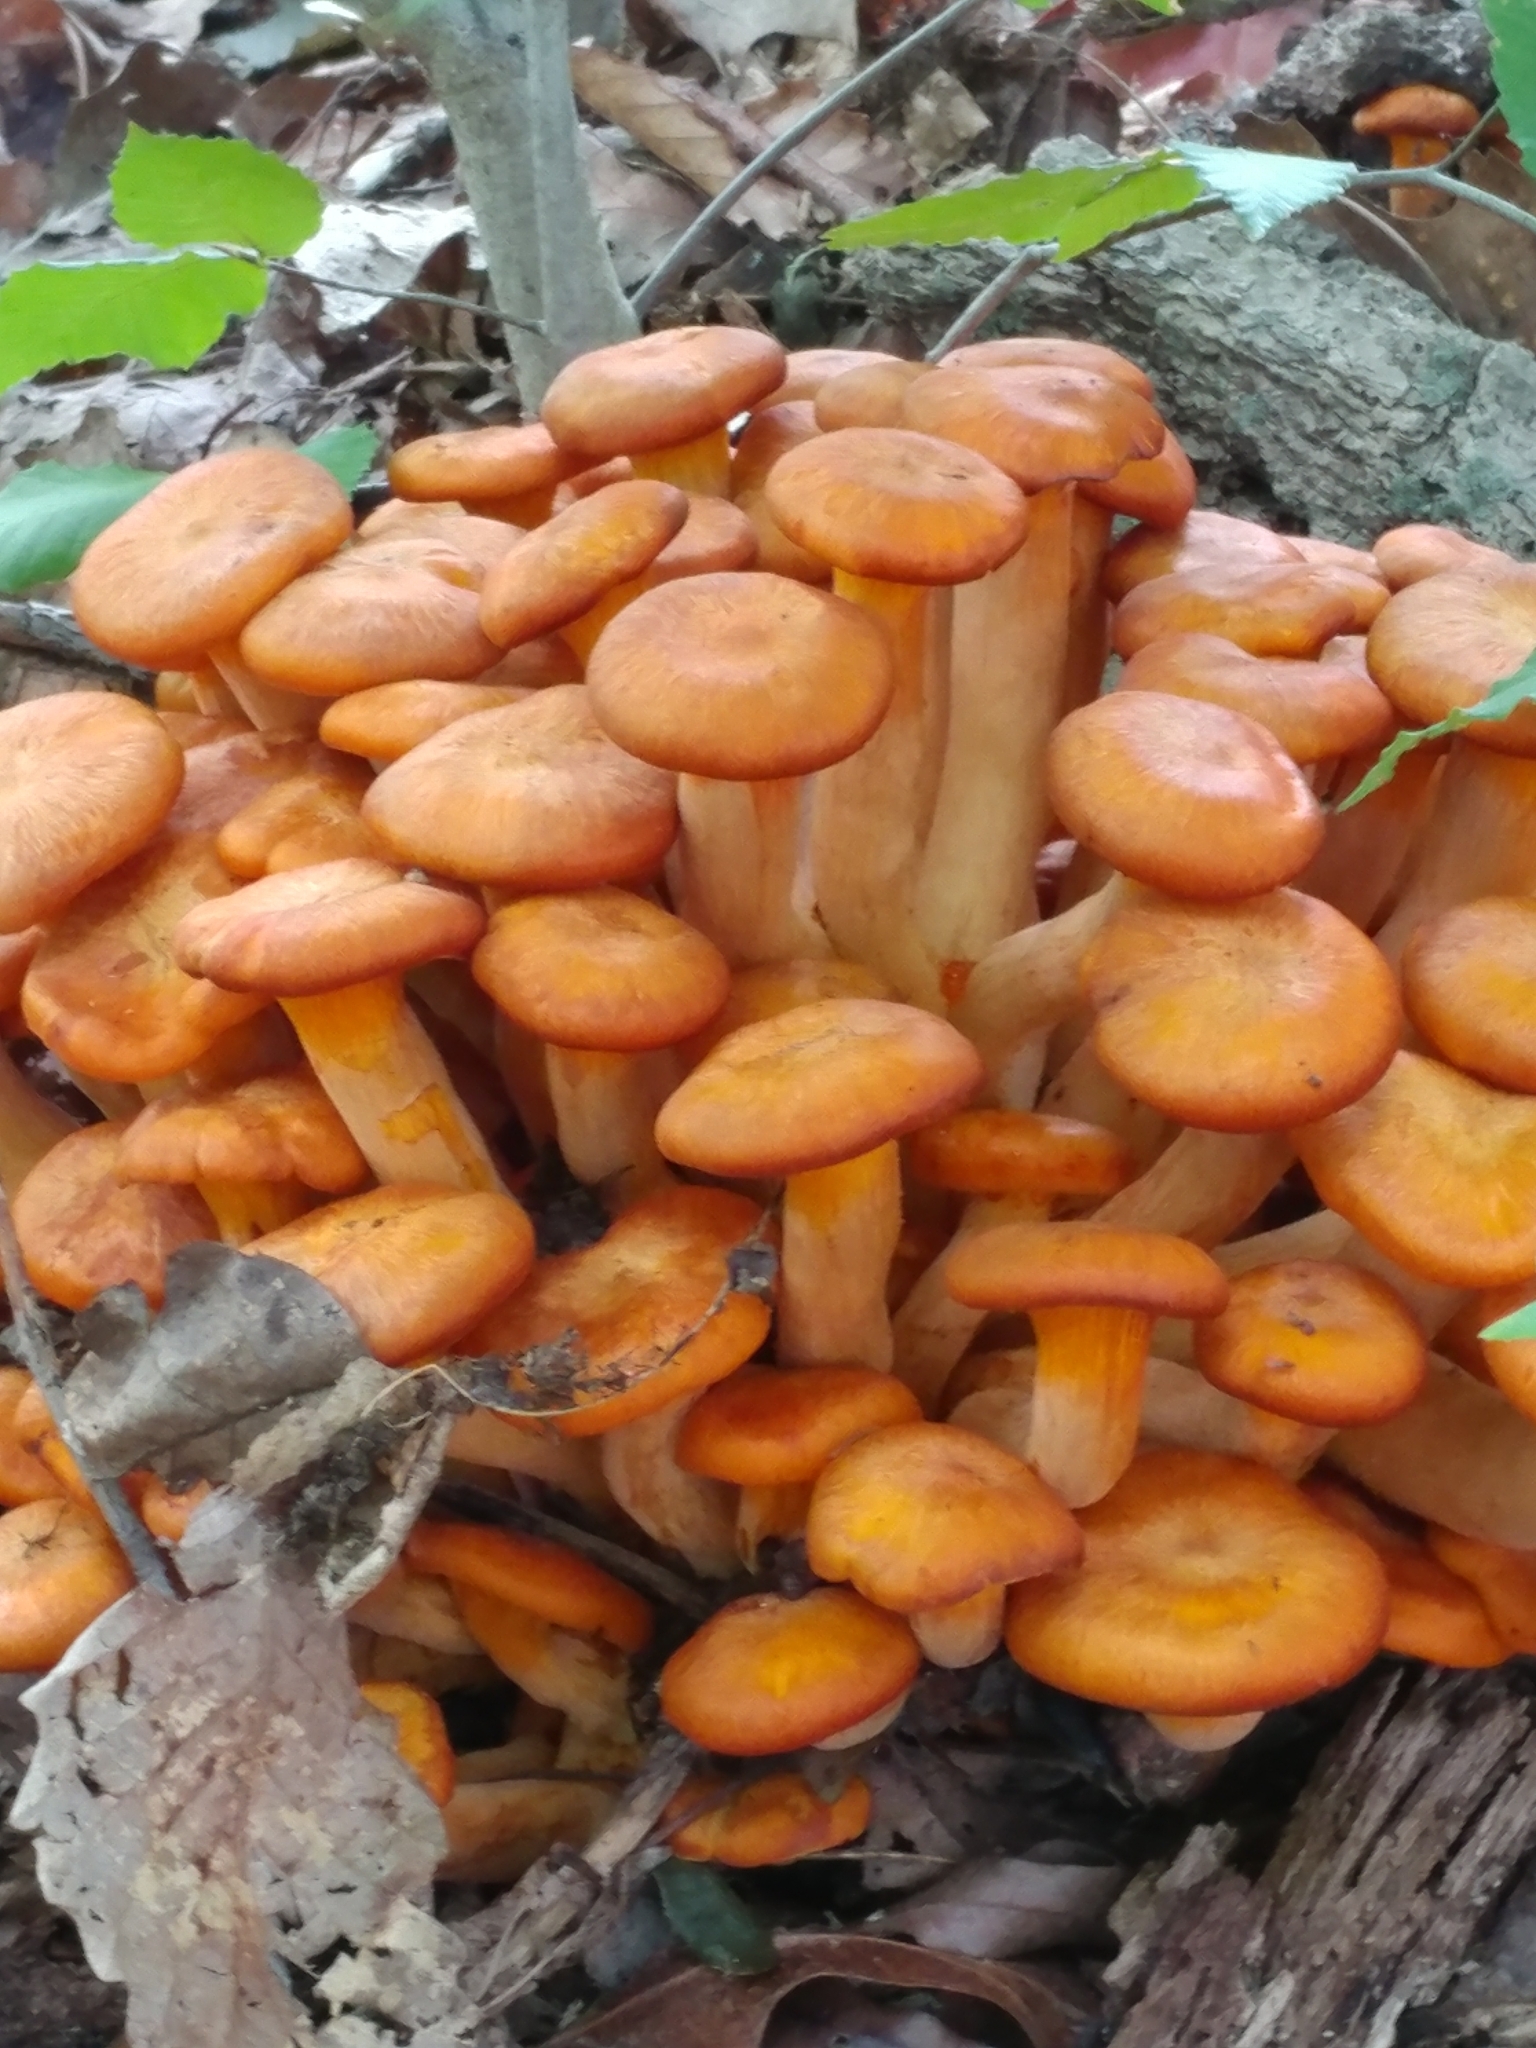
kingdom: Fungi
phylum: Basidiomycota
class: Agaricomycetes
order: Agaricales
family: Omphalotaceae
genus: Omphalotus
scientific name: Omphalotus illudens
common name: Jack o lantern
